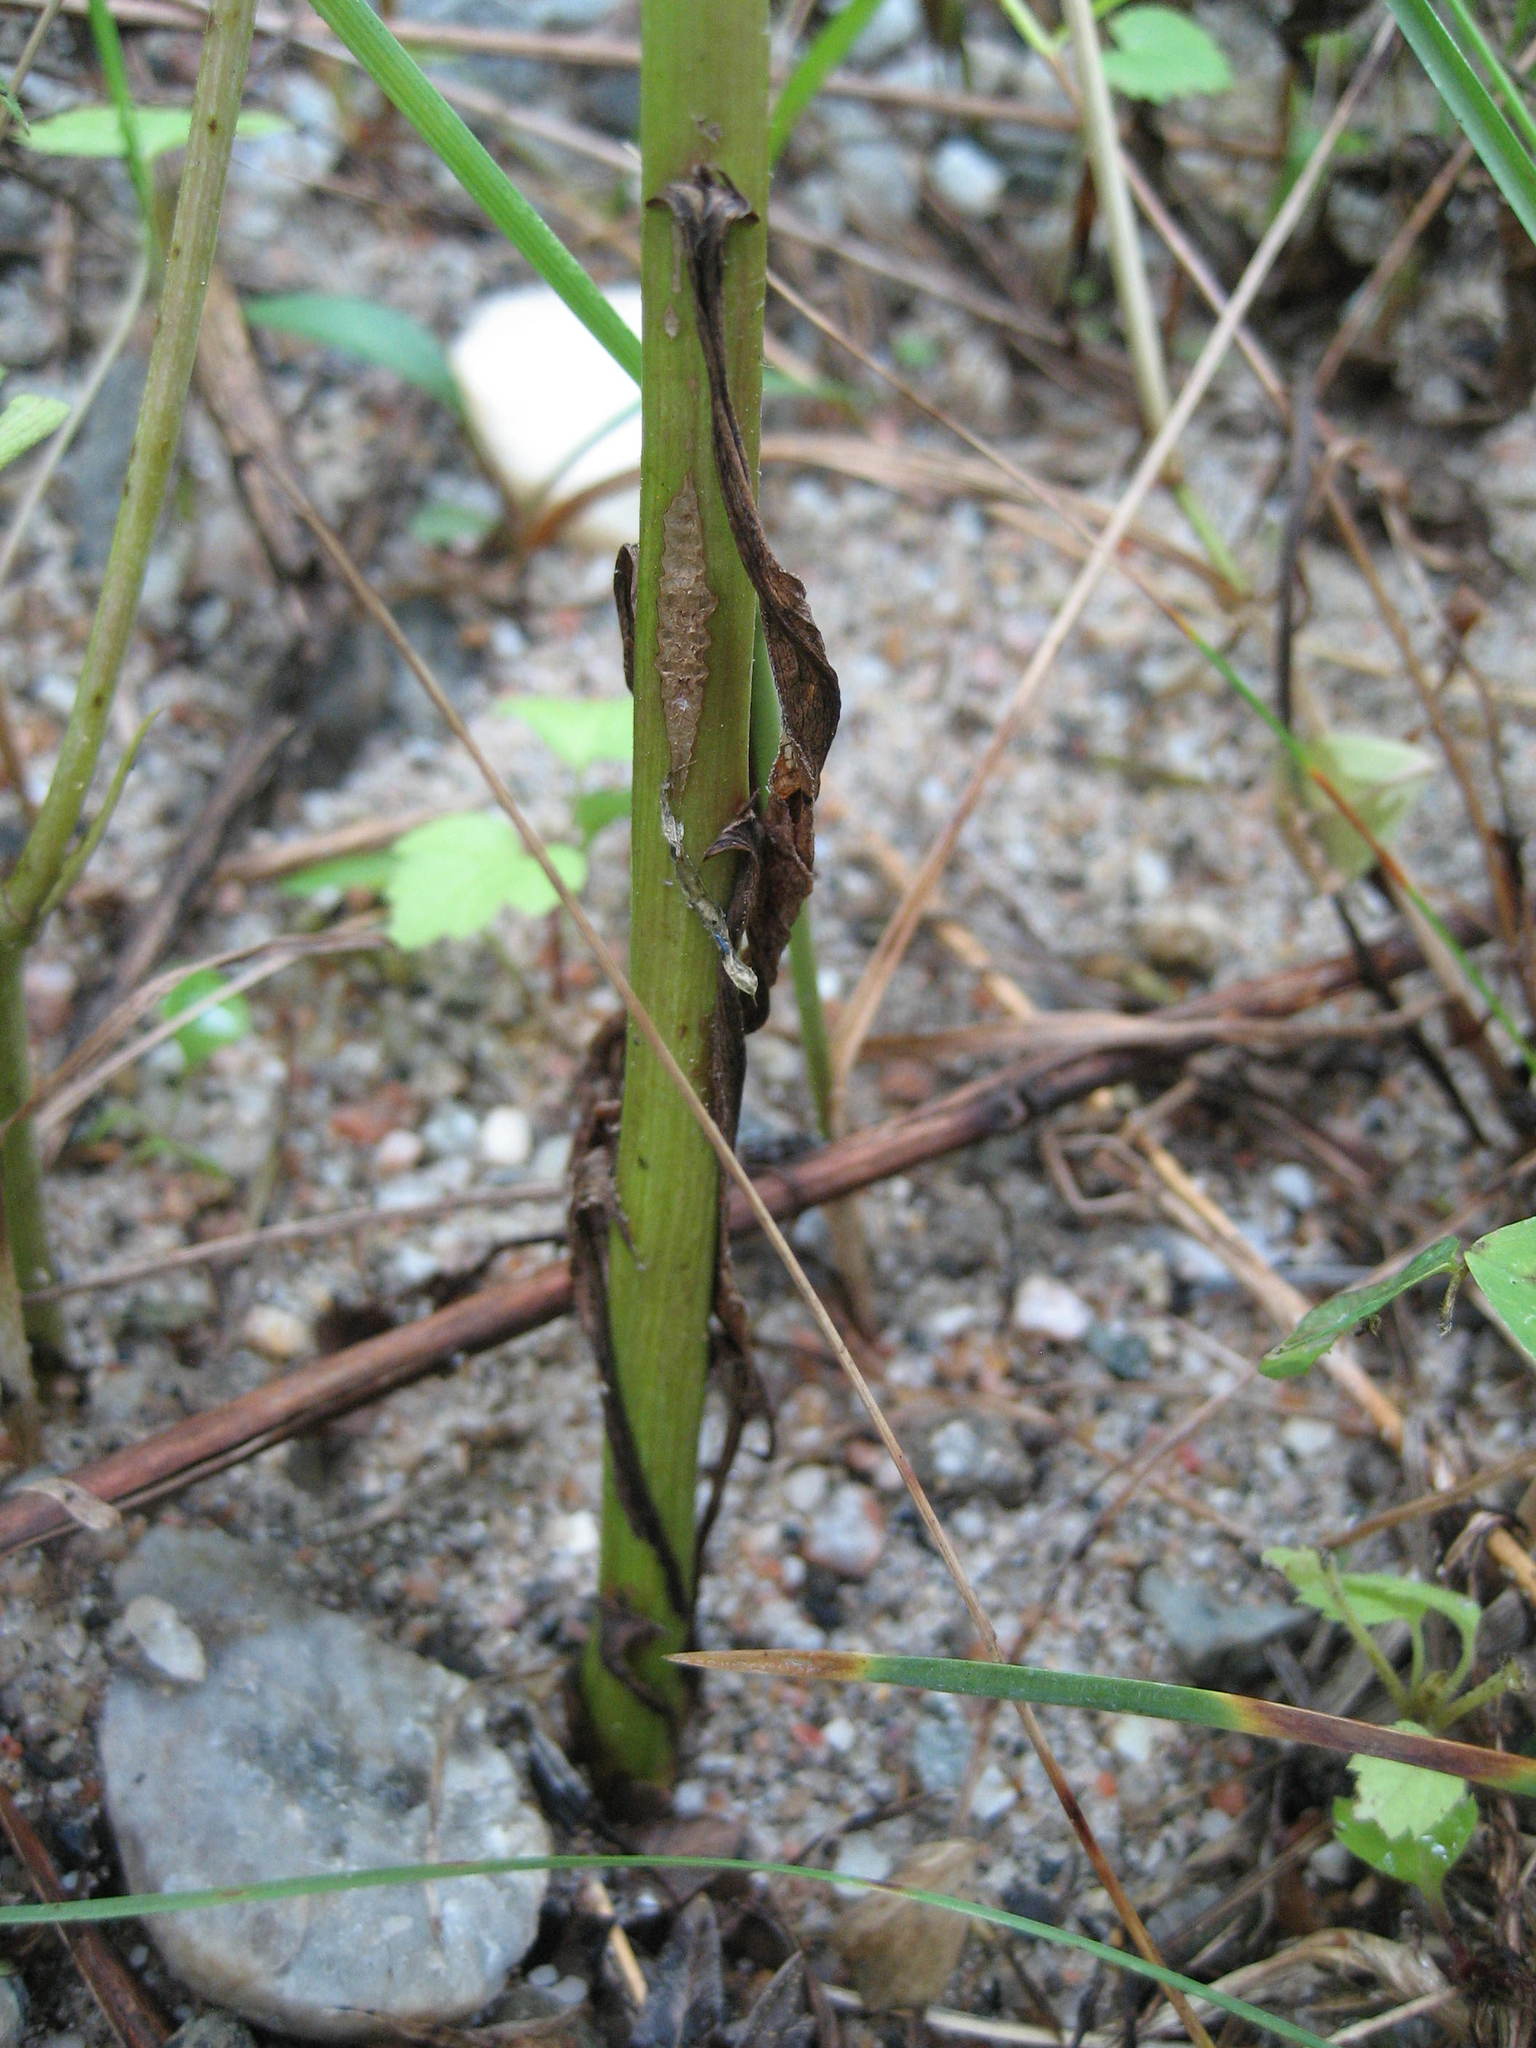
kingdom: Plantae
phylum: Tracheophyta
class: Magnoliopsida
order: Asterales
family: Asteraceae
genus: Solidago
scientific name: Solidago canadensis
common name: Canada goldenrod
